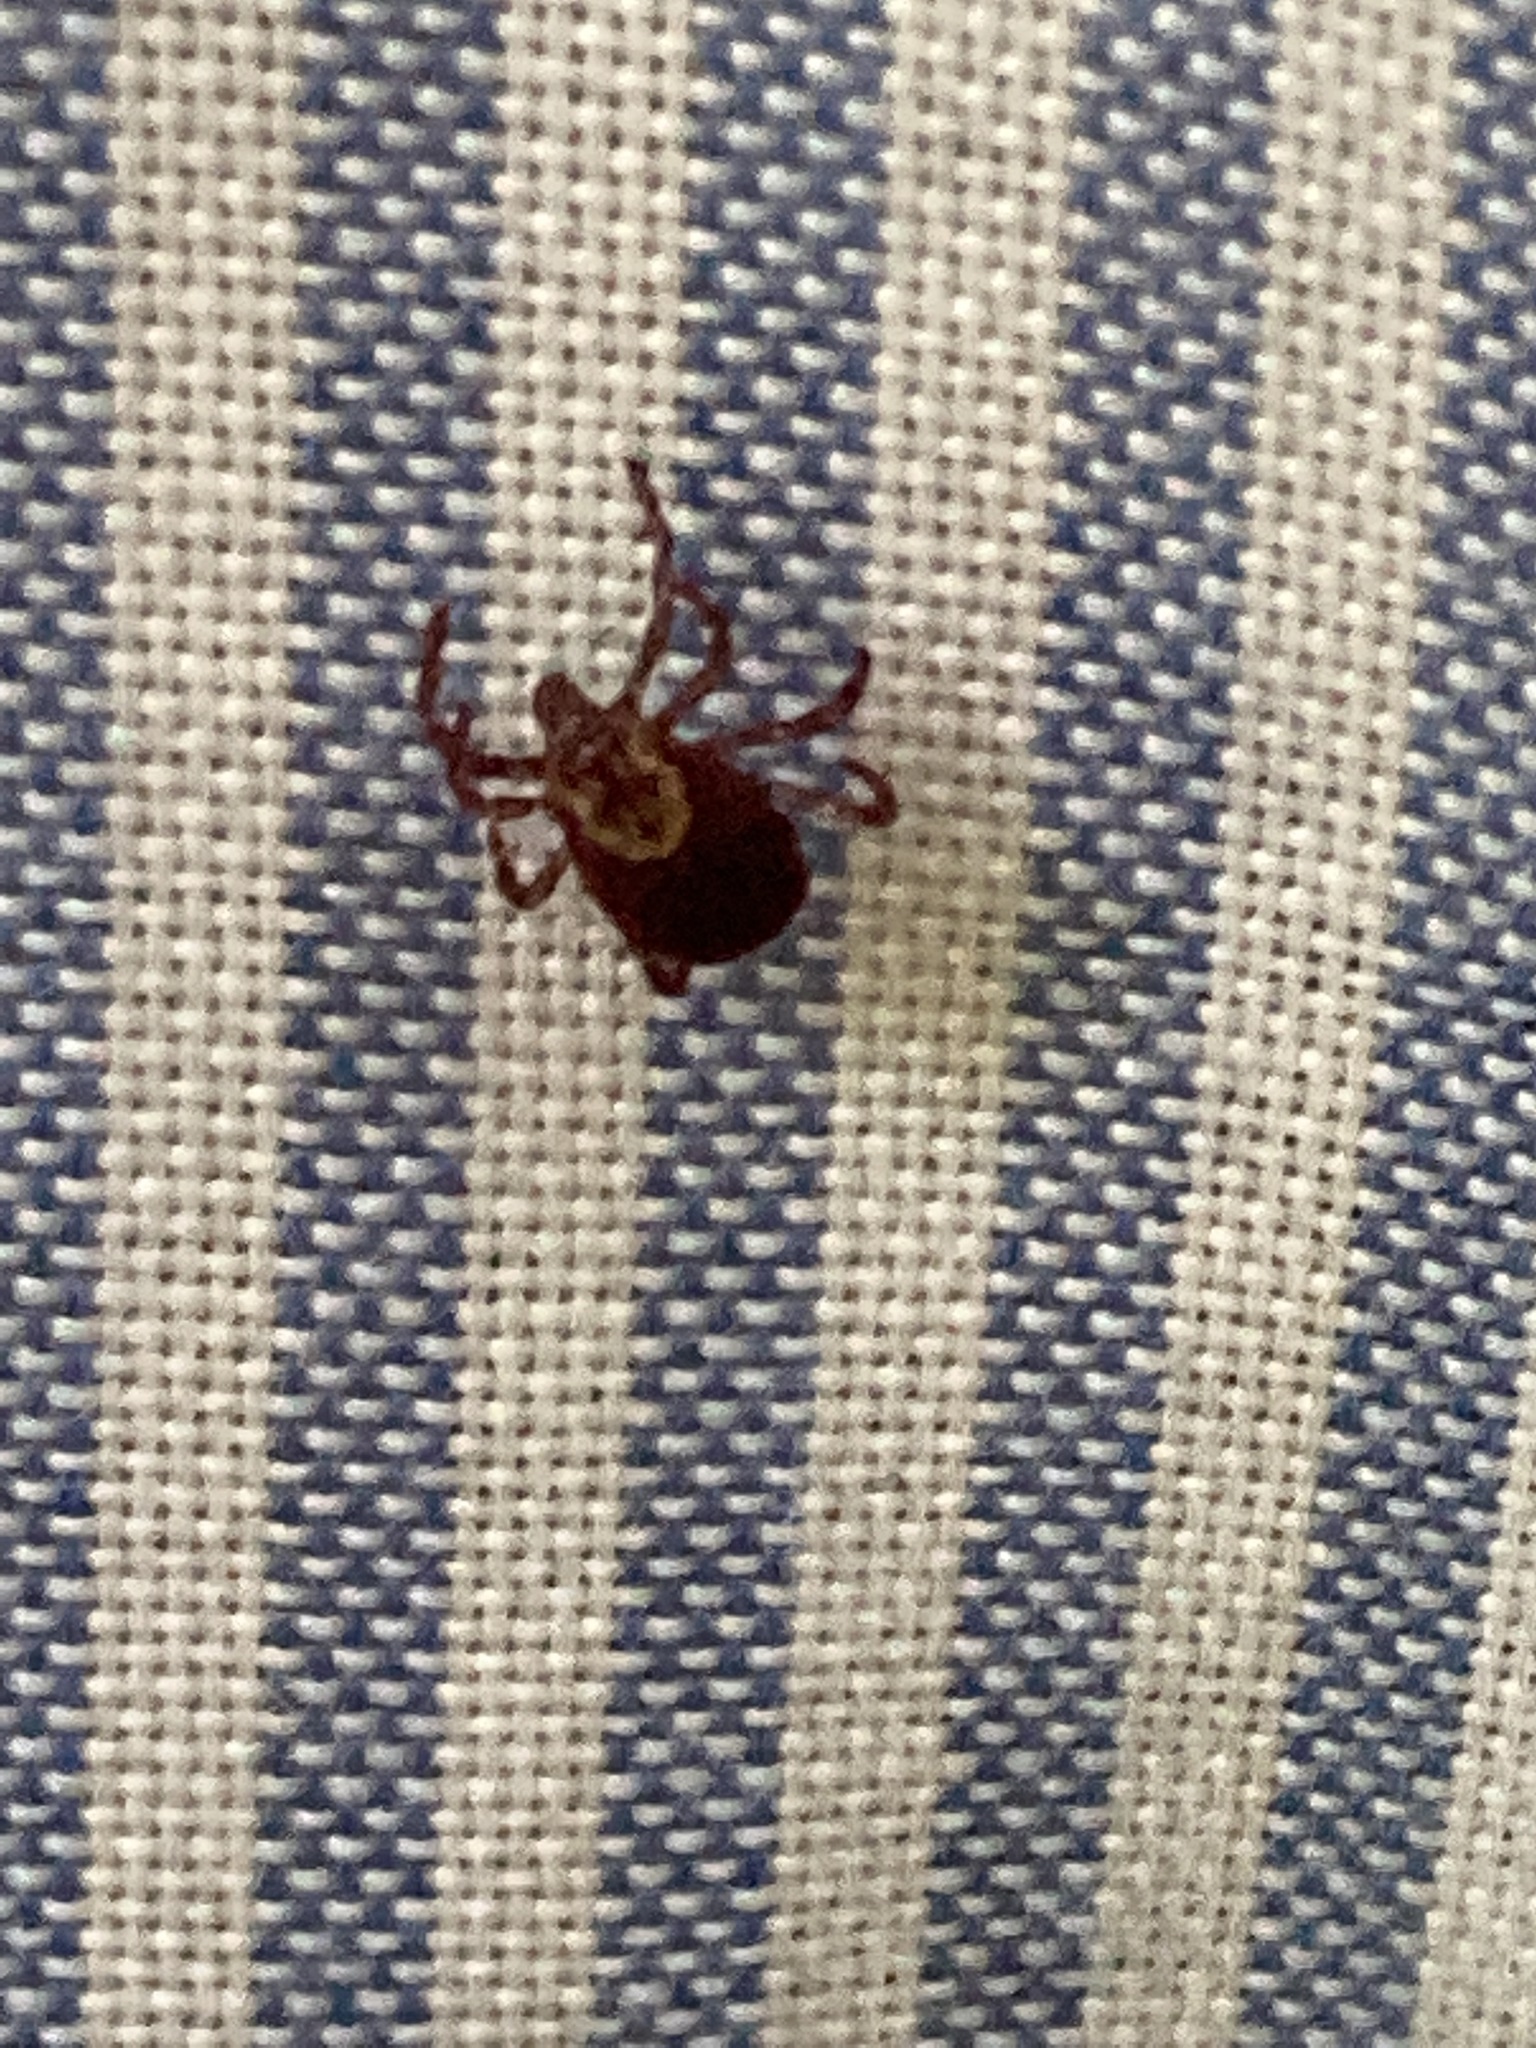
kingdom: Animalia
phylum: Arthropoda
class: Arachnida
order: Ixodida
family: Ixodidae
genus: Dermacentor
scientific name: Dermacentor variabilis
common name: American dog tick
